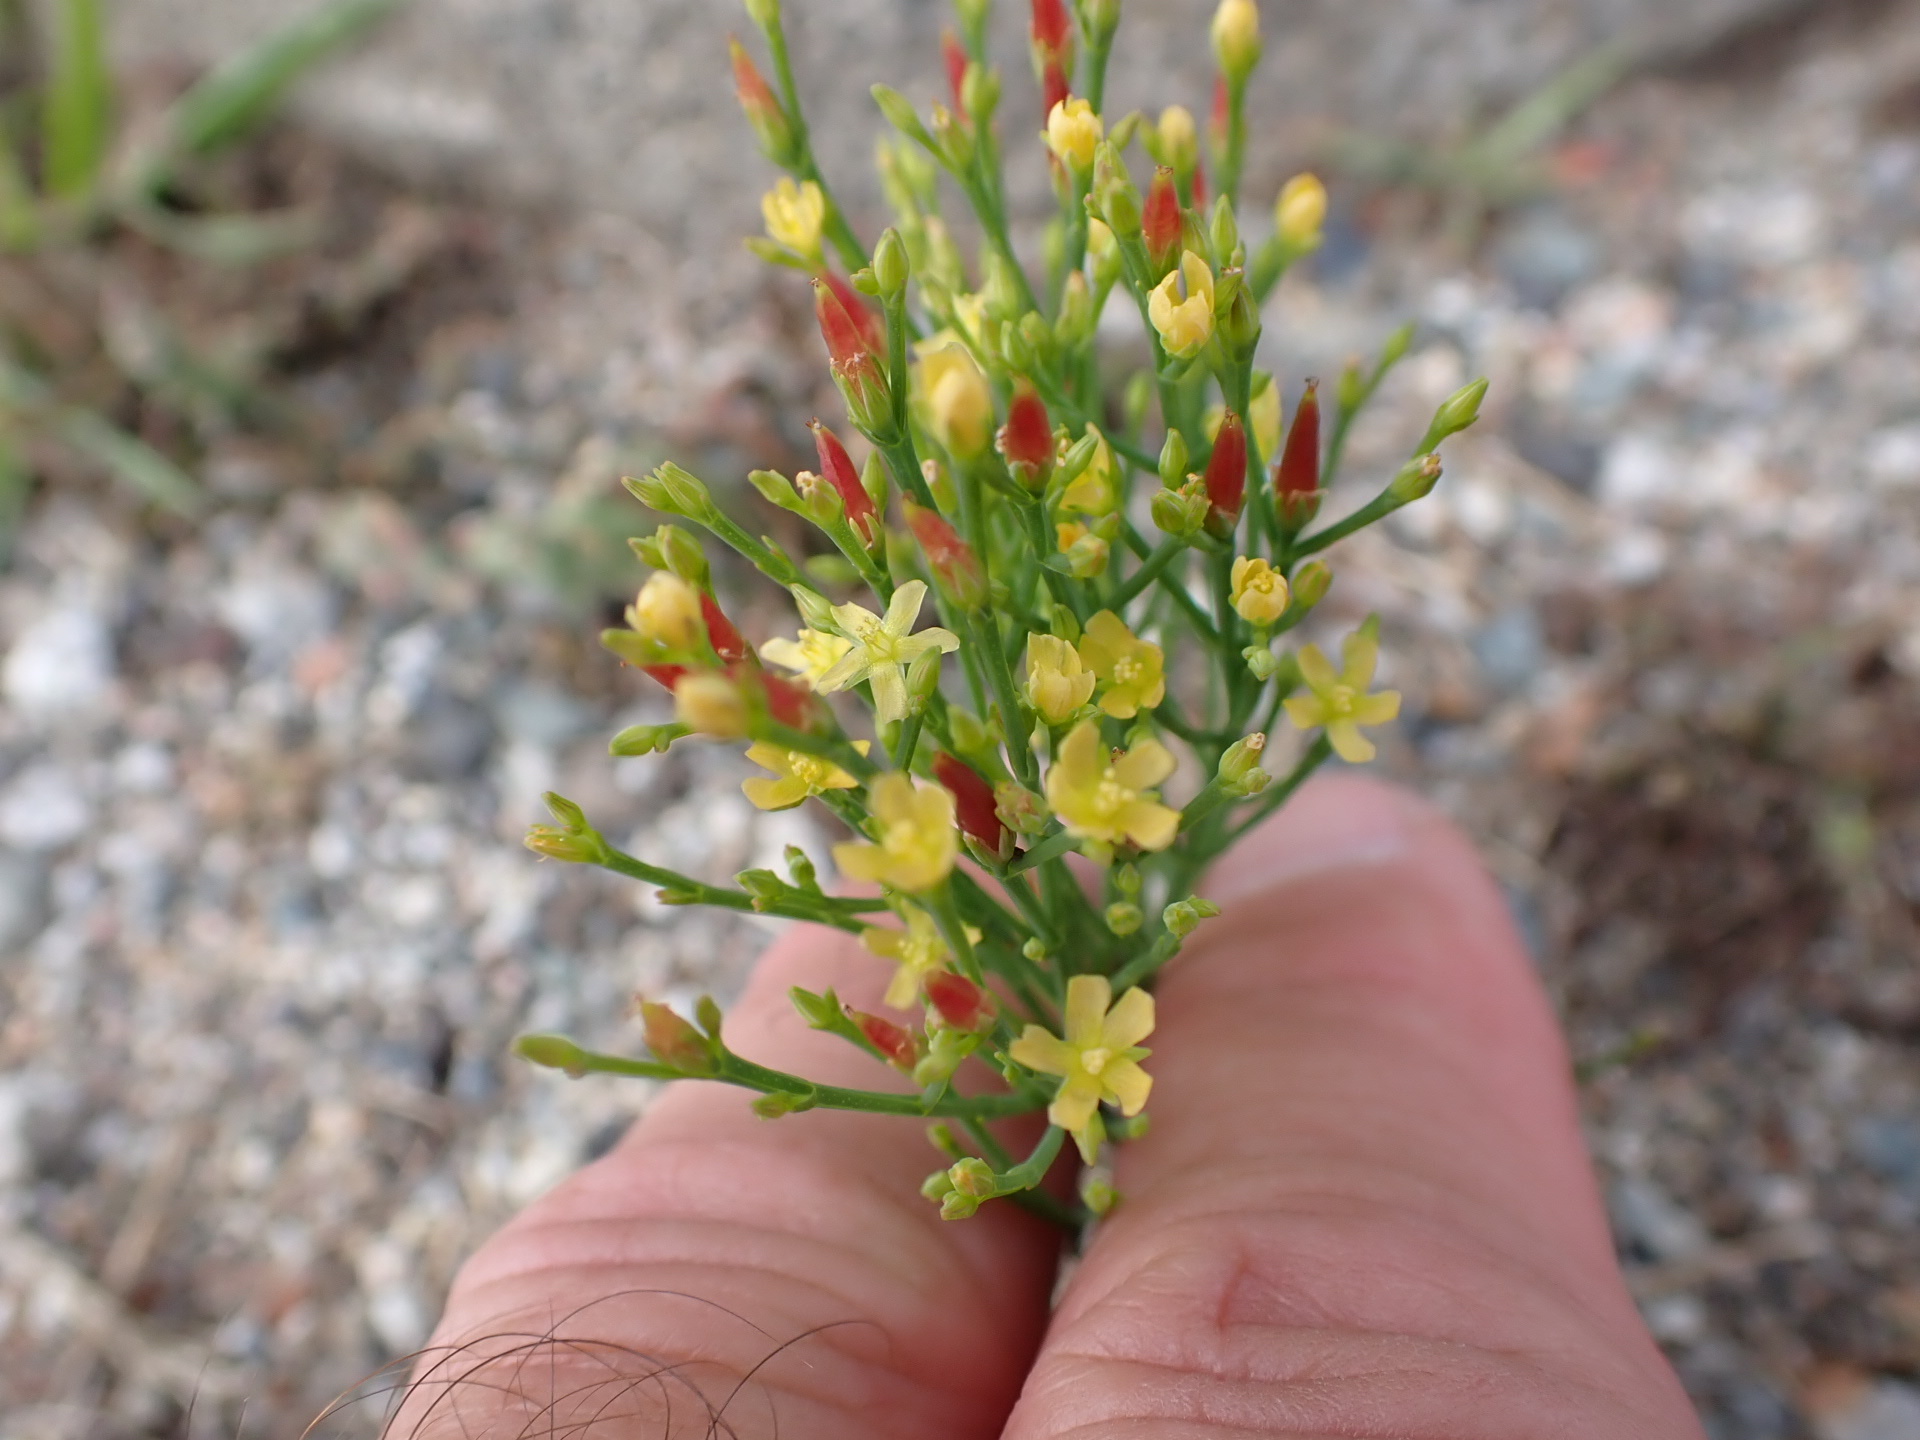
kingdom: Plantae
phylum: Tracheophyta
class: Magnoliopsida
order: Malpighiales
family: Hypericaceae
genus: Hypericum
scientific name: Hypericum gentianoides
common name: Gentian-leaved st. john's-wort
